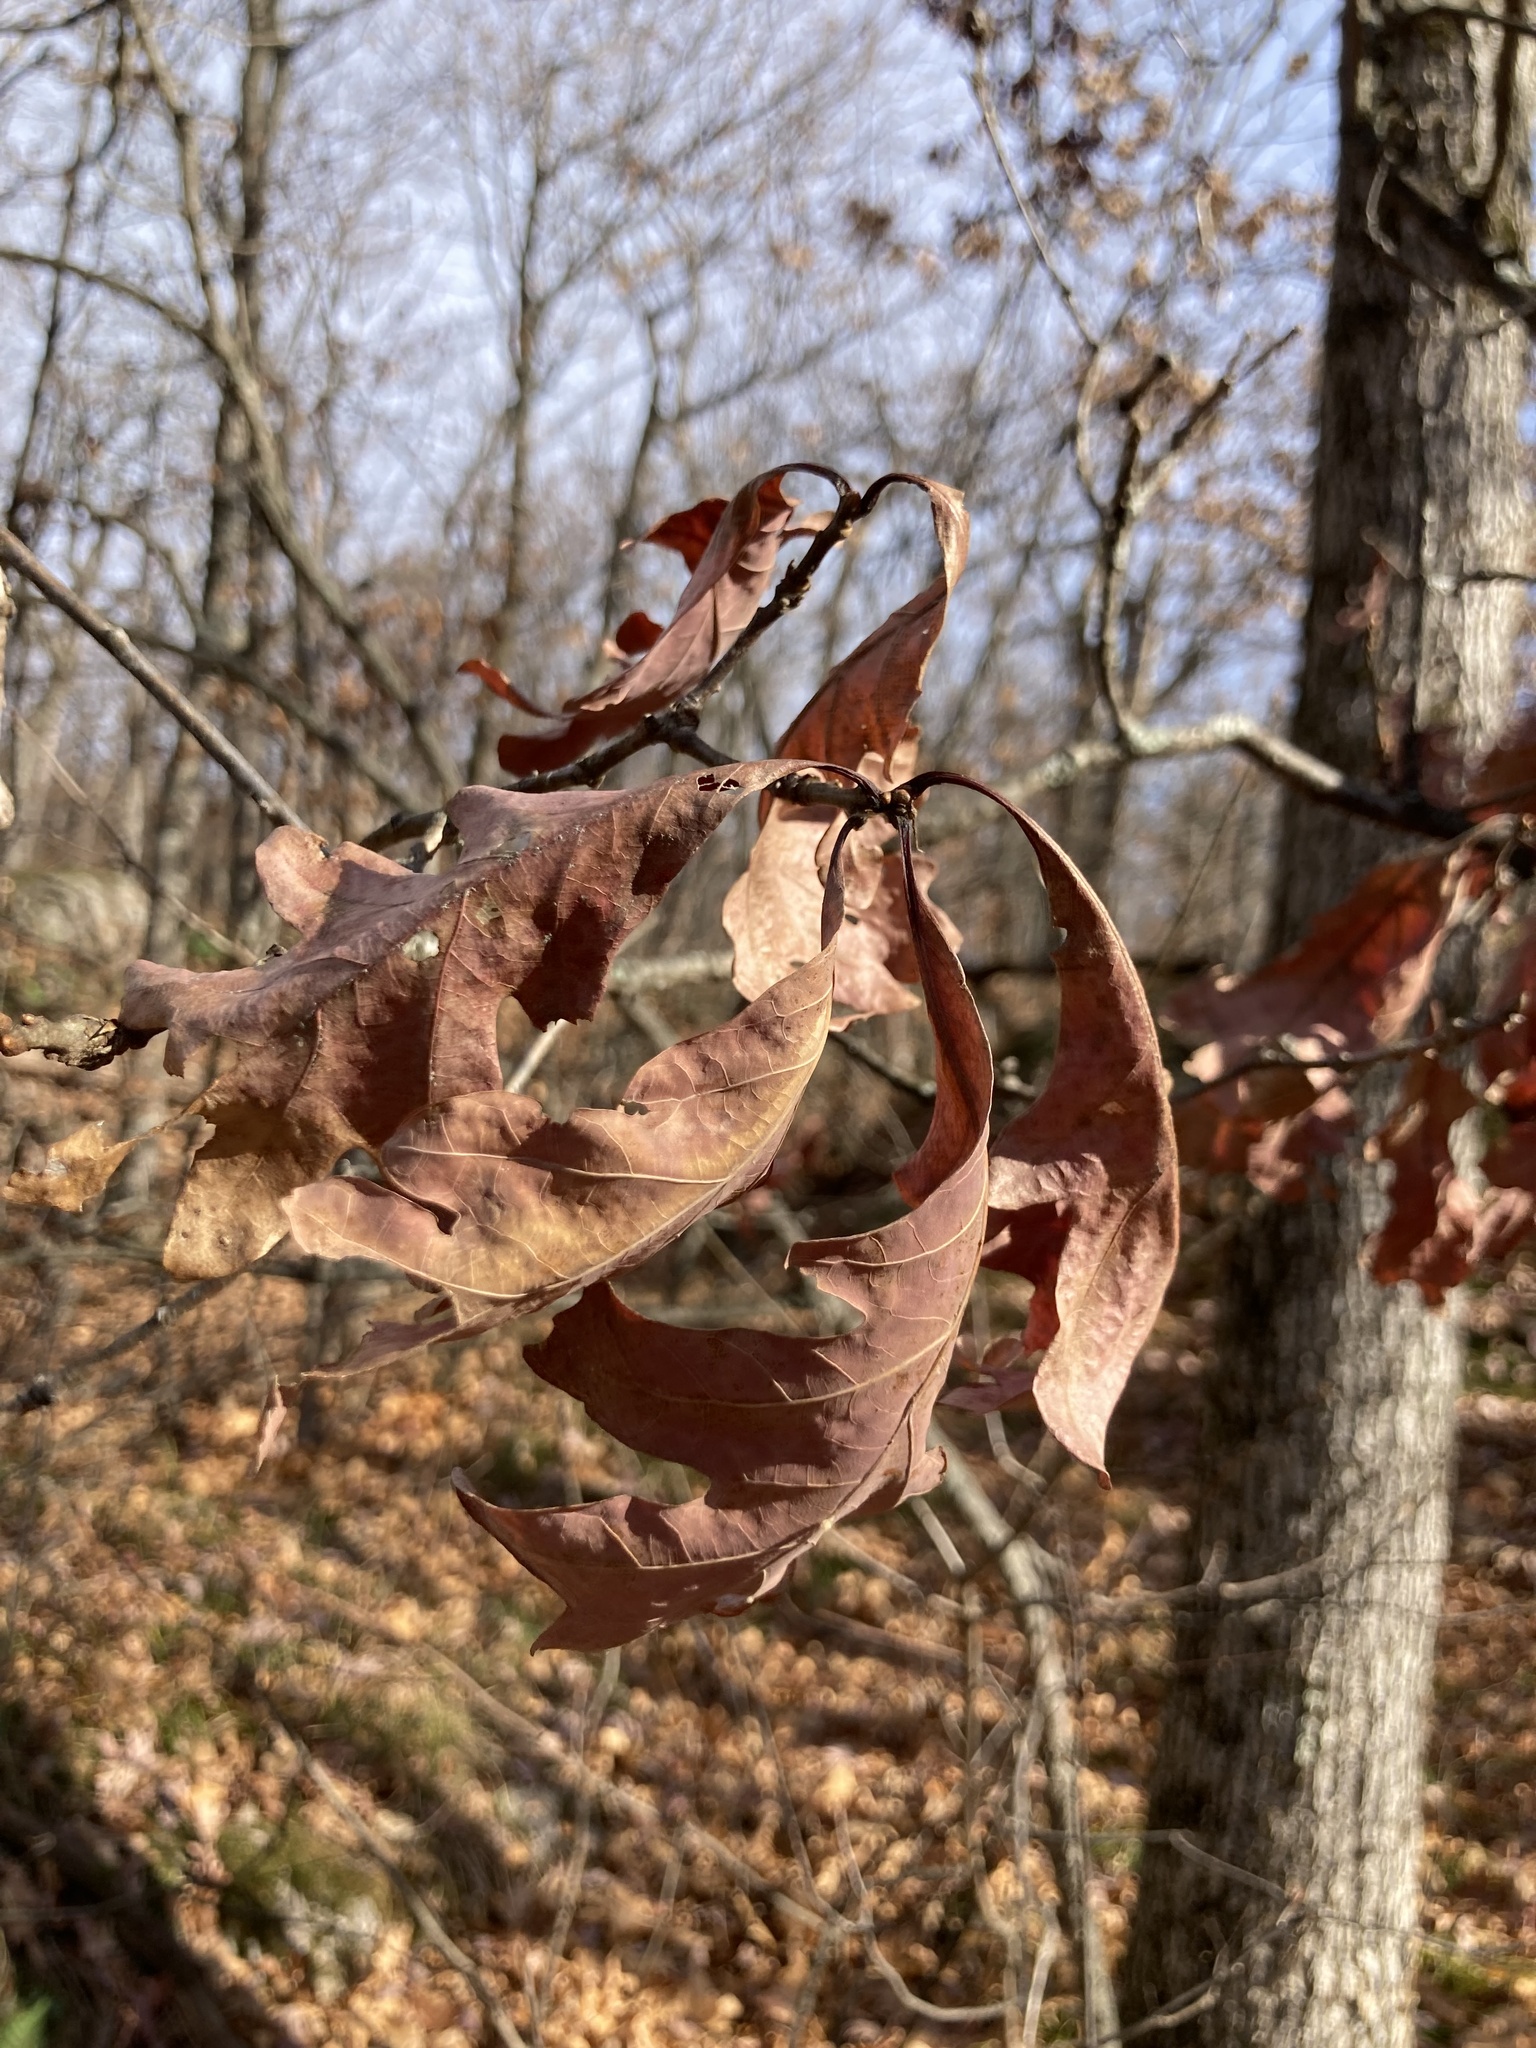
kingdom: Plantae
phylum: Tracheophyta
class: Magnoliopsida
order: Fagales
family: Fagaceae
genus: Quercus
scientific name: Quercus alba
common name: White oak
